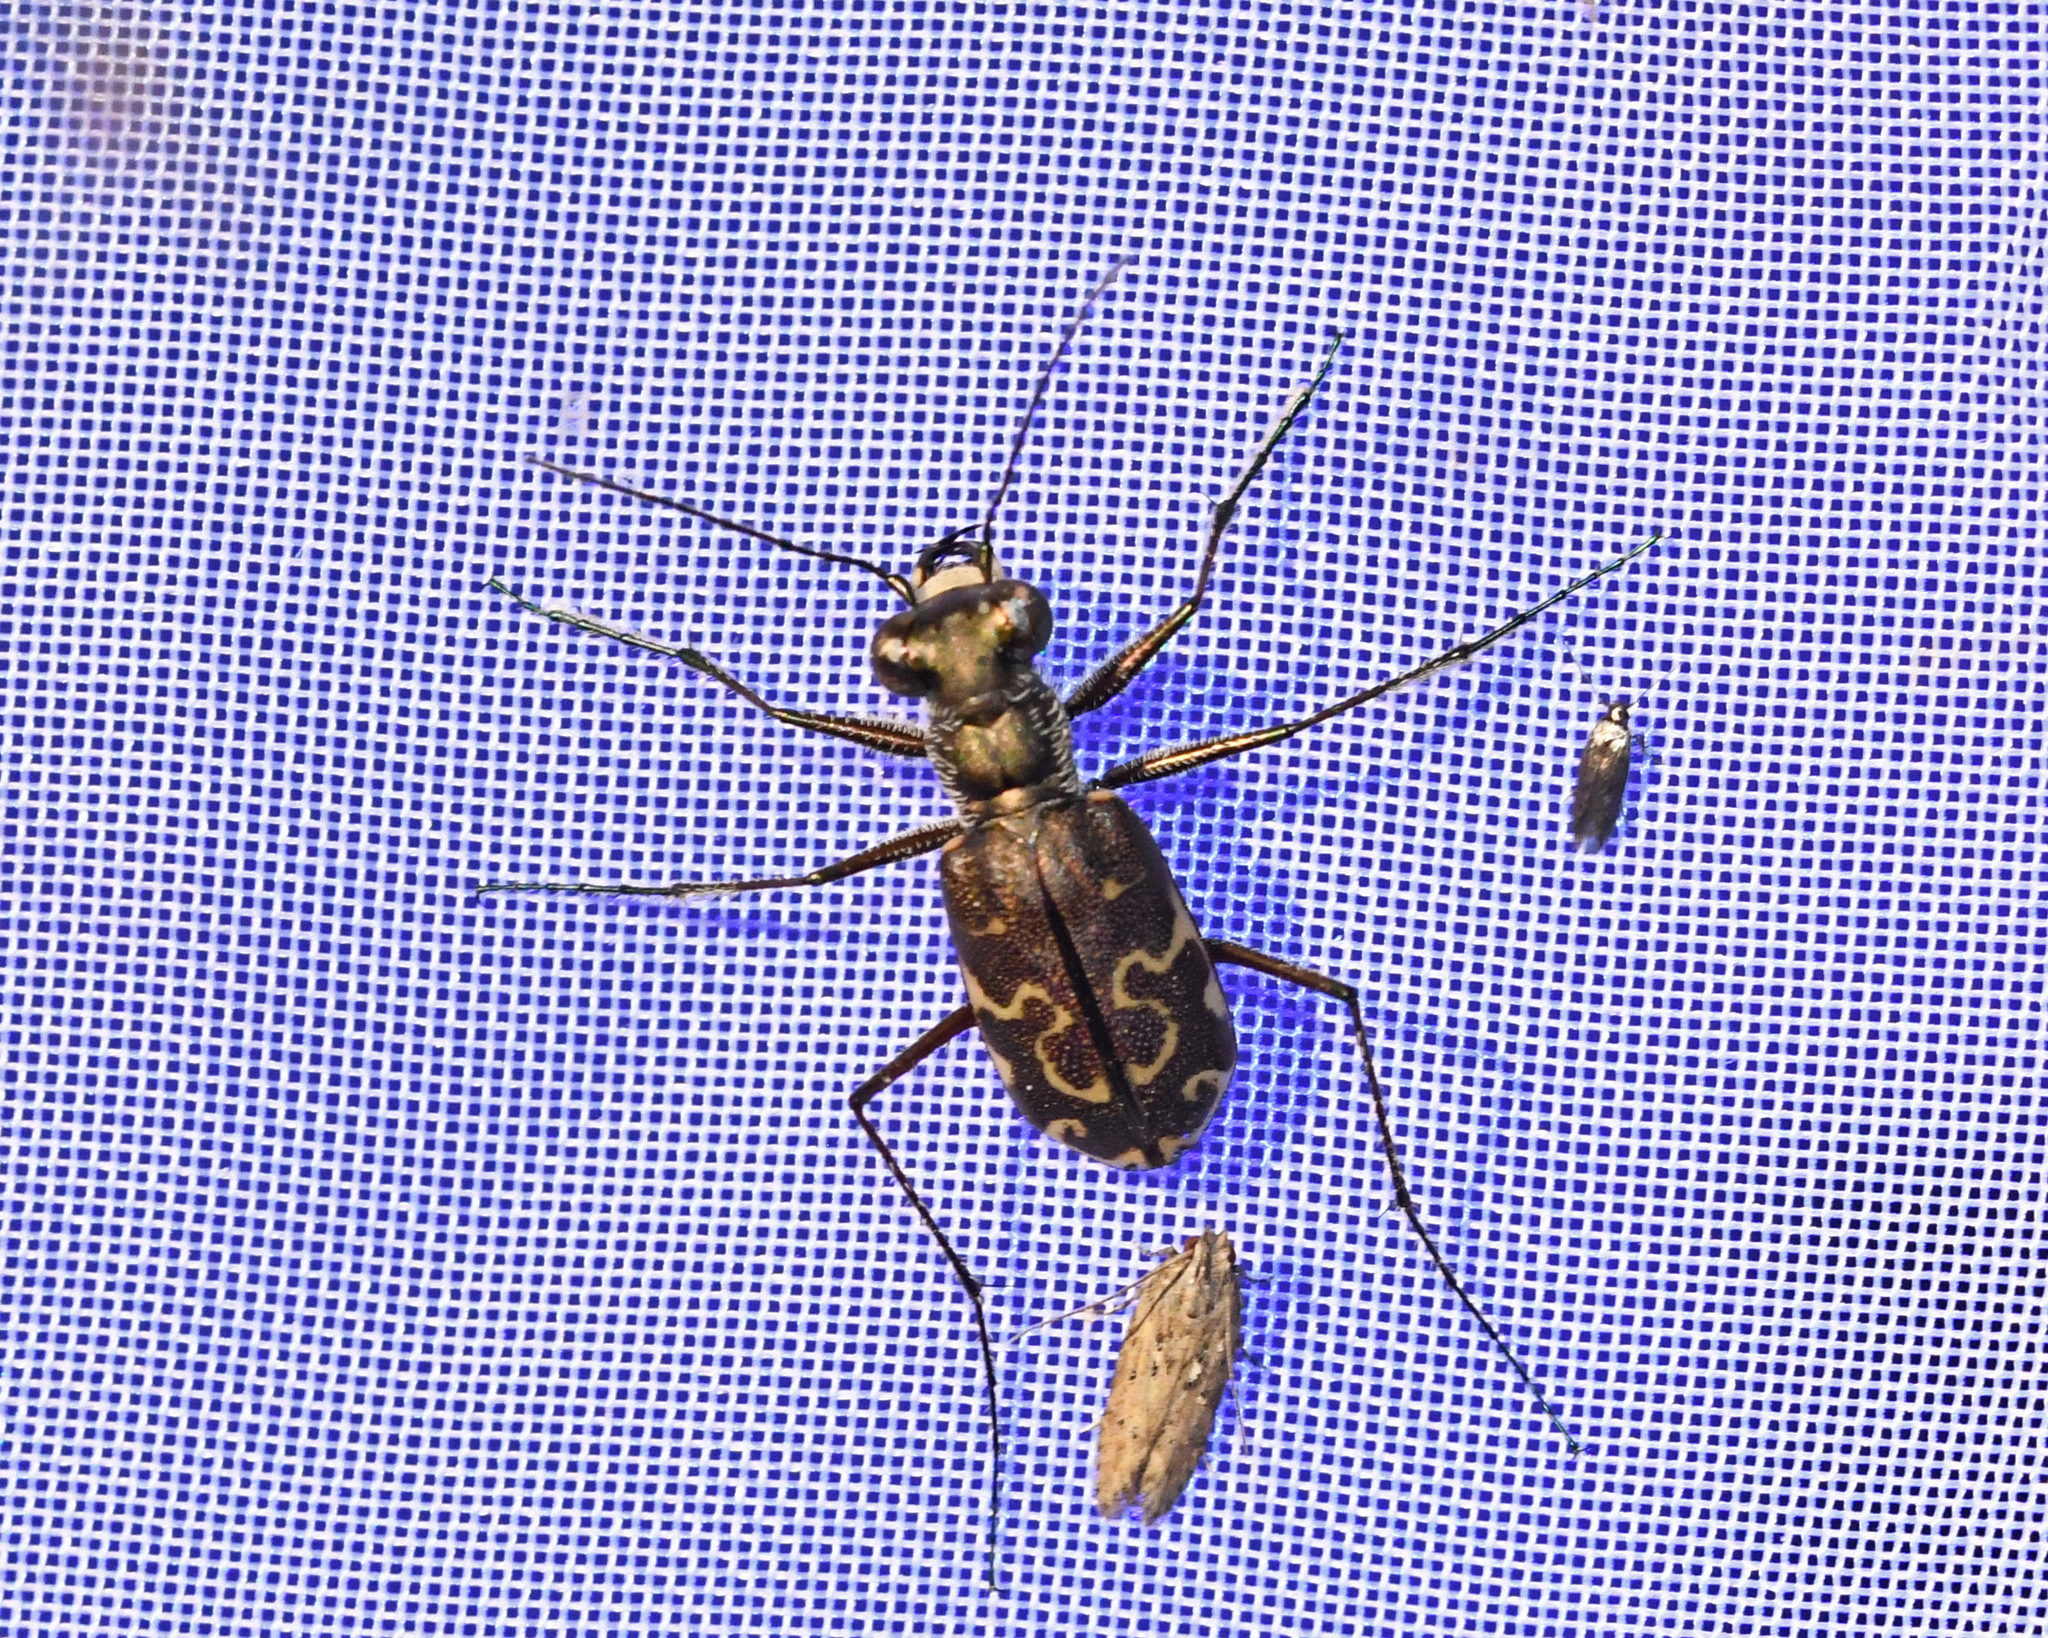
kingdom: Animalia
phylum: Arthropoda
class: Insecta
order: Coleoptera
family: Carabidae
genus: Cicindela
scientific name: Cicindela trifasciata
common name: Mudflat tiger beetle
